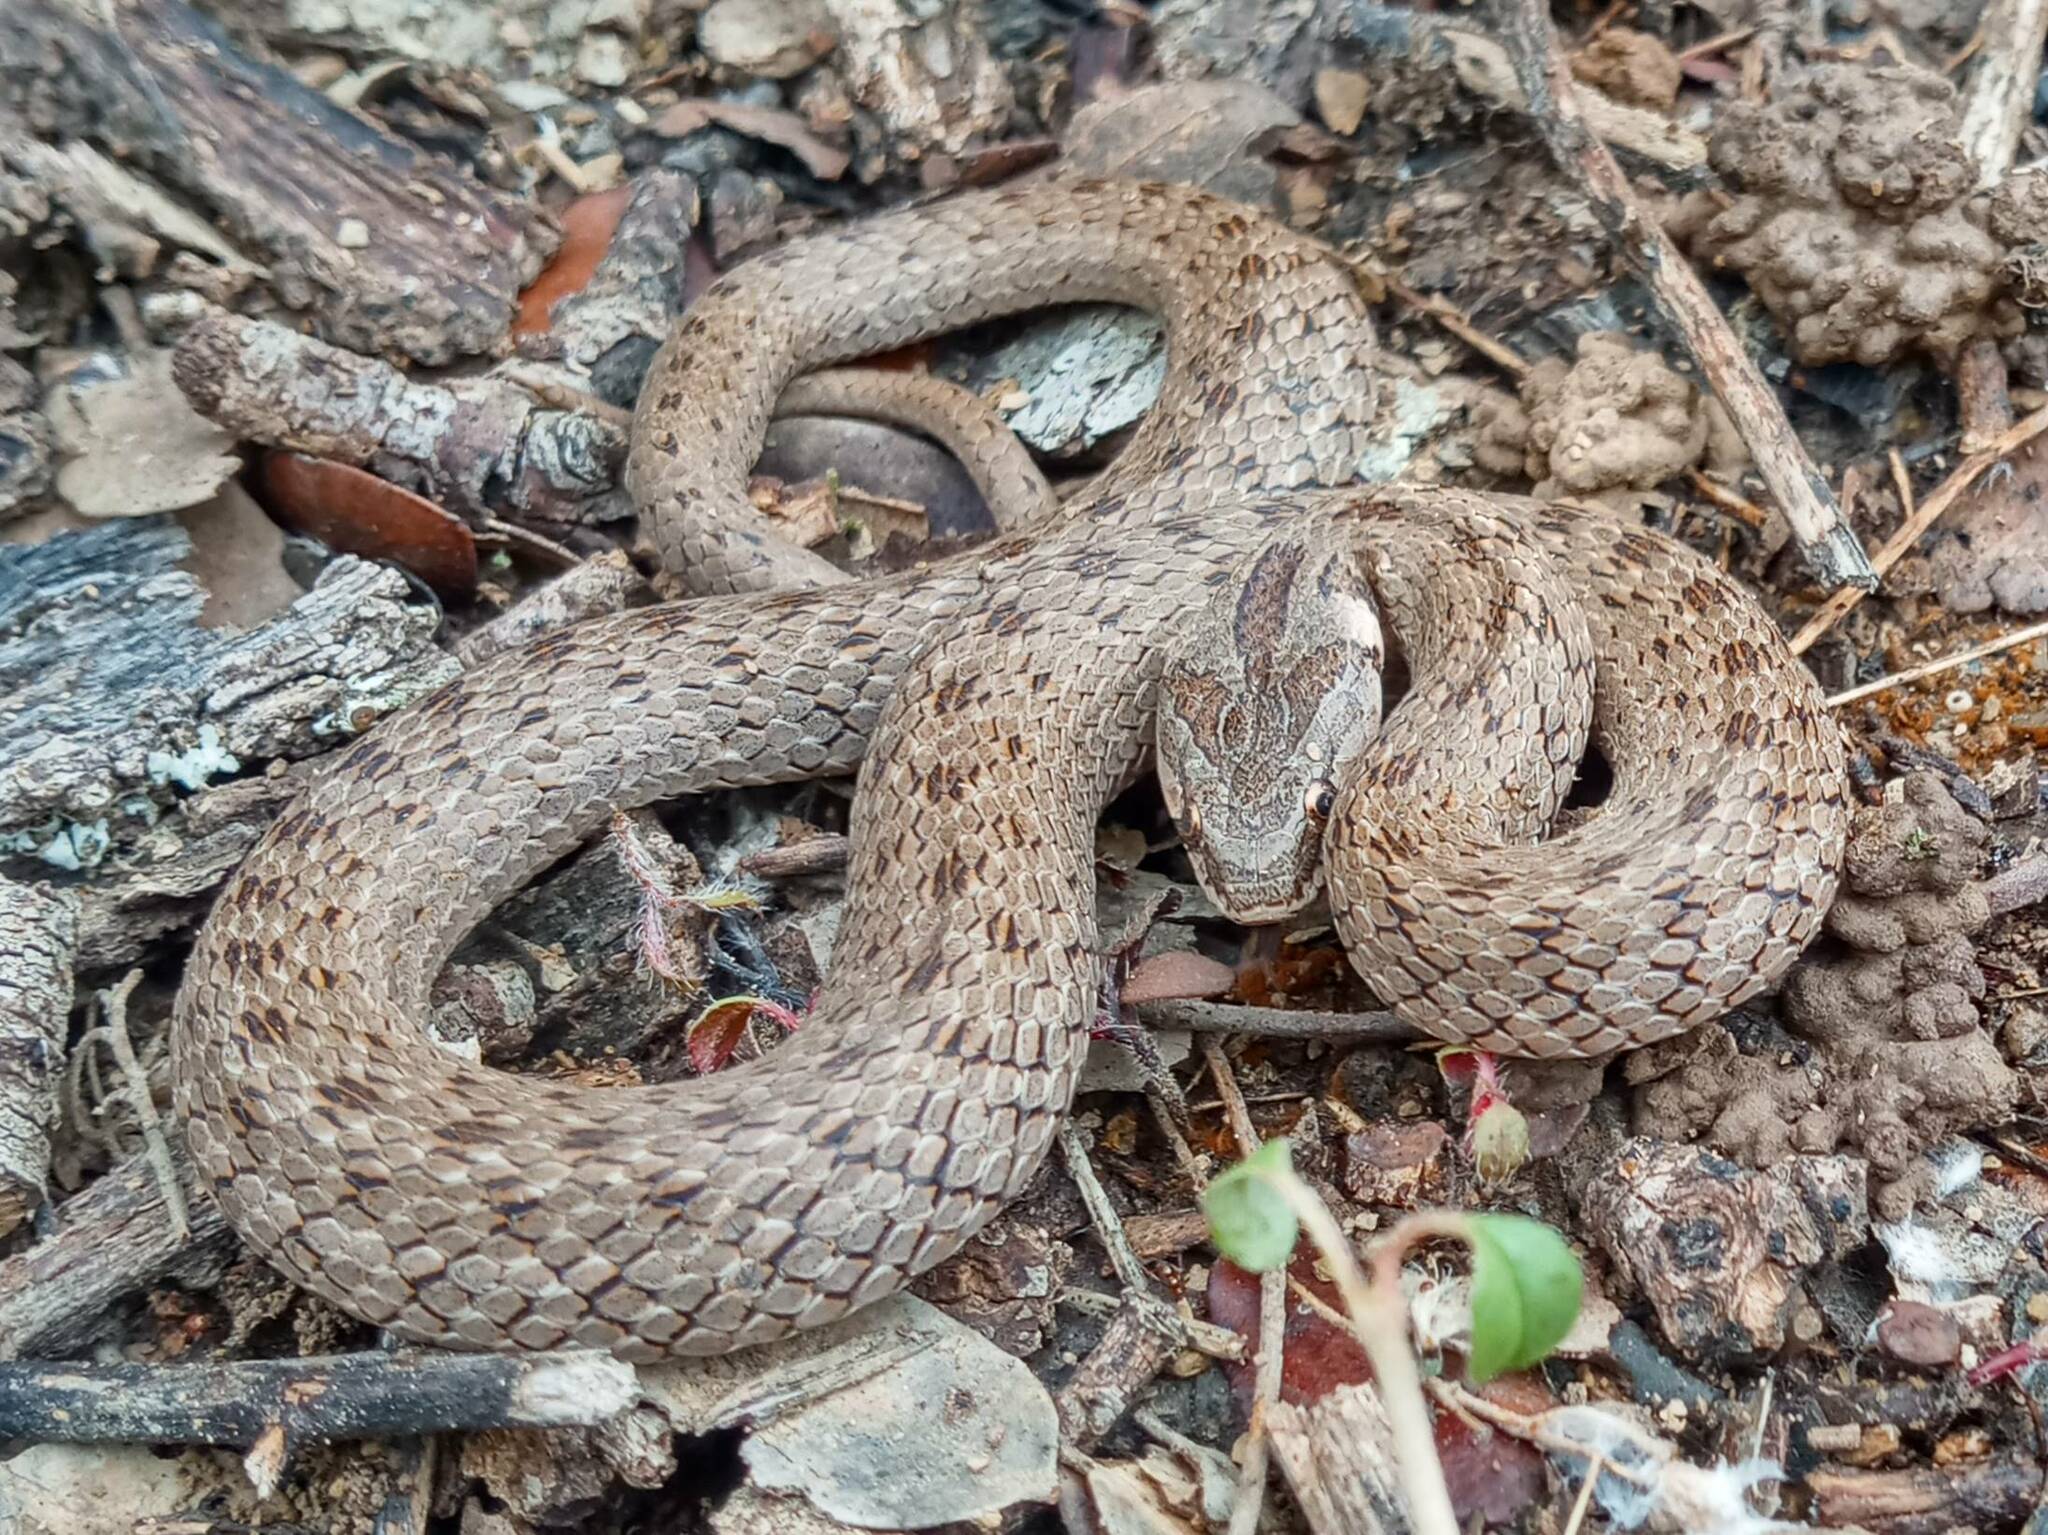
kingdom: Animalia
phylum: Chordata
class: Squamata
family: Colubridae
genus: Macroprotodon
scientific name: Macroprotodon mauritanicus
